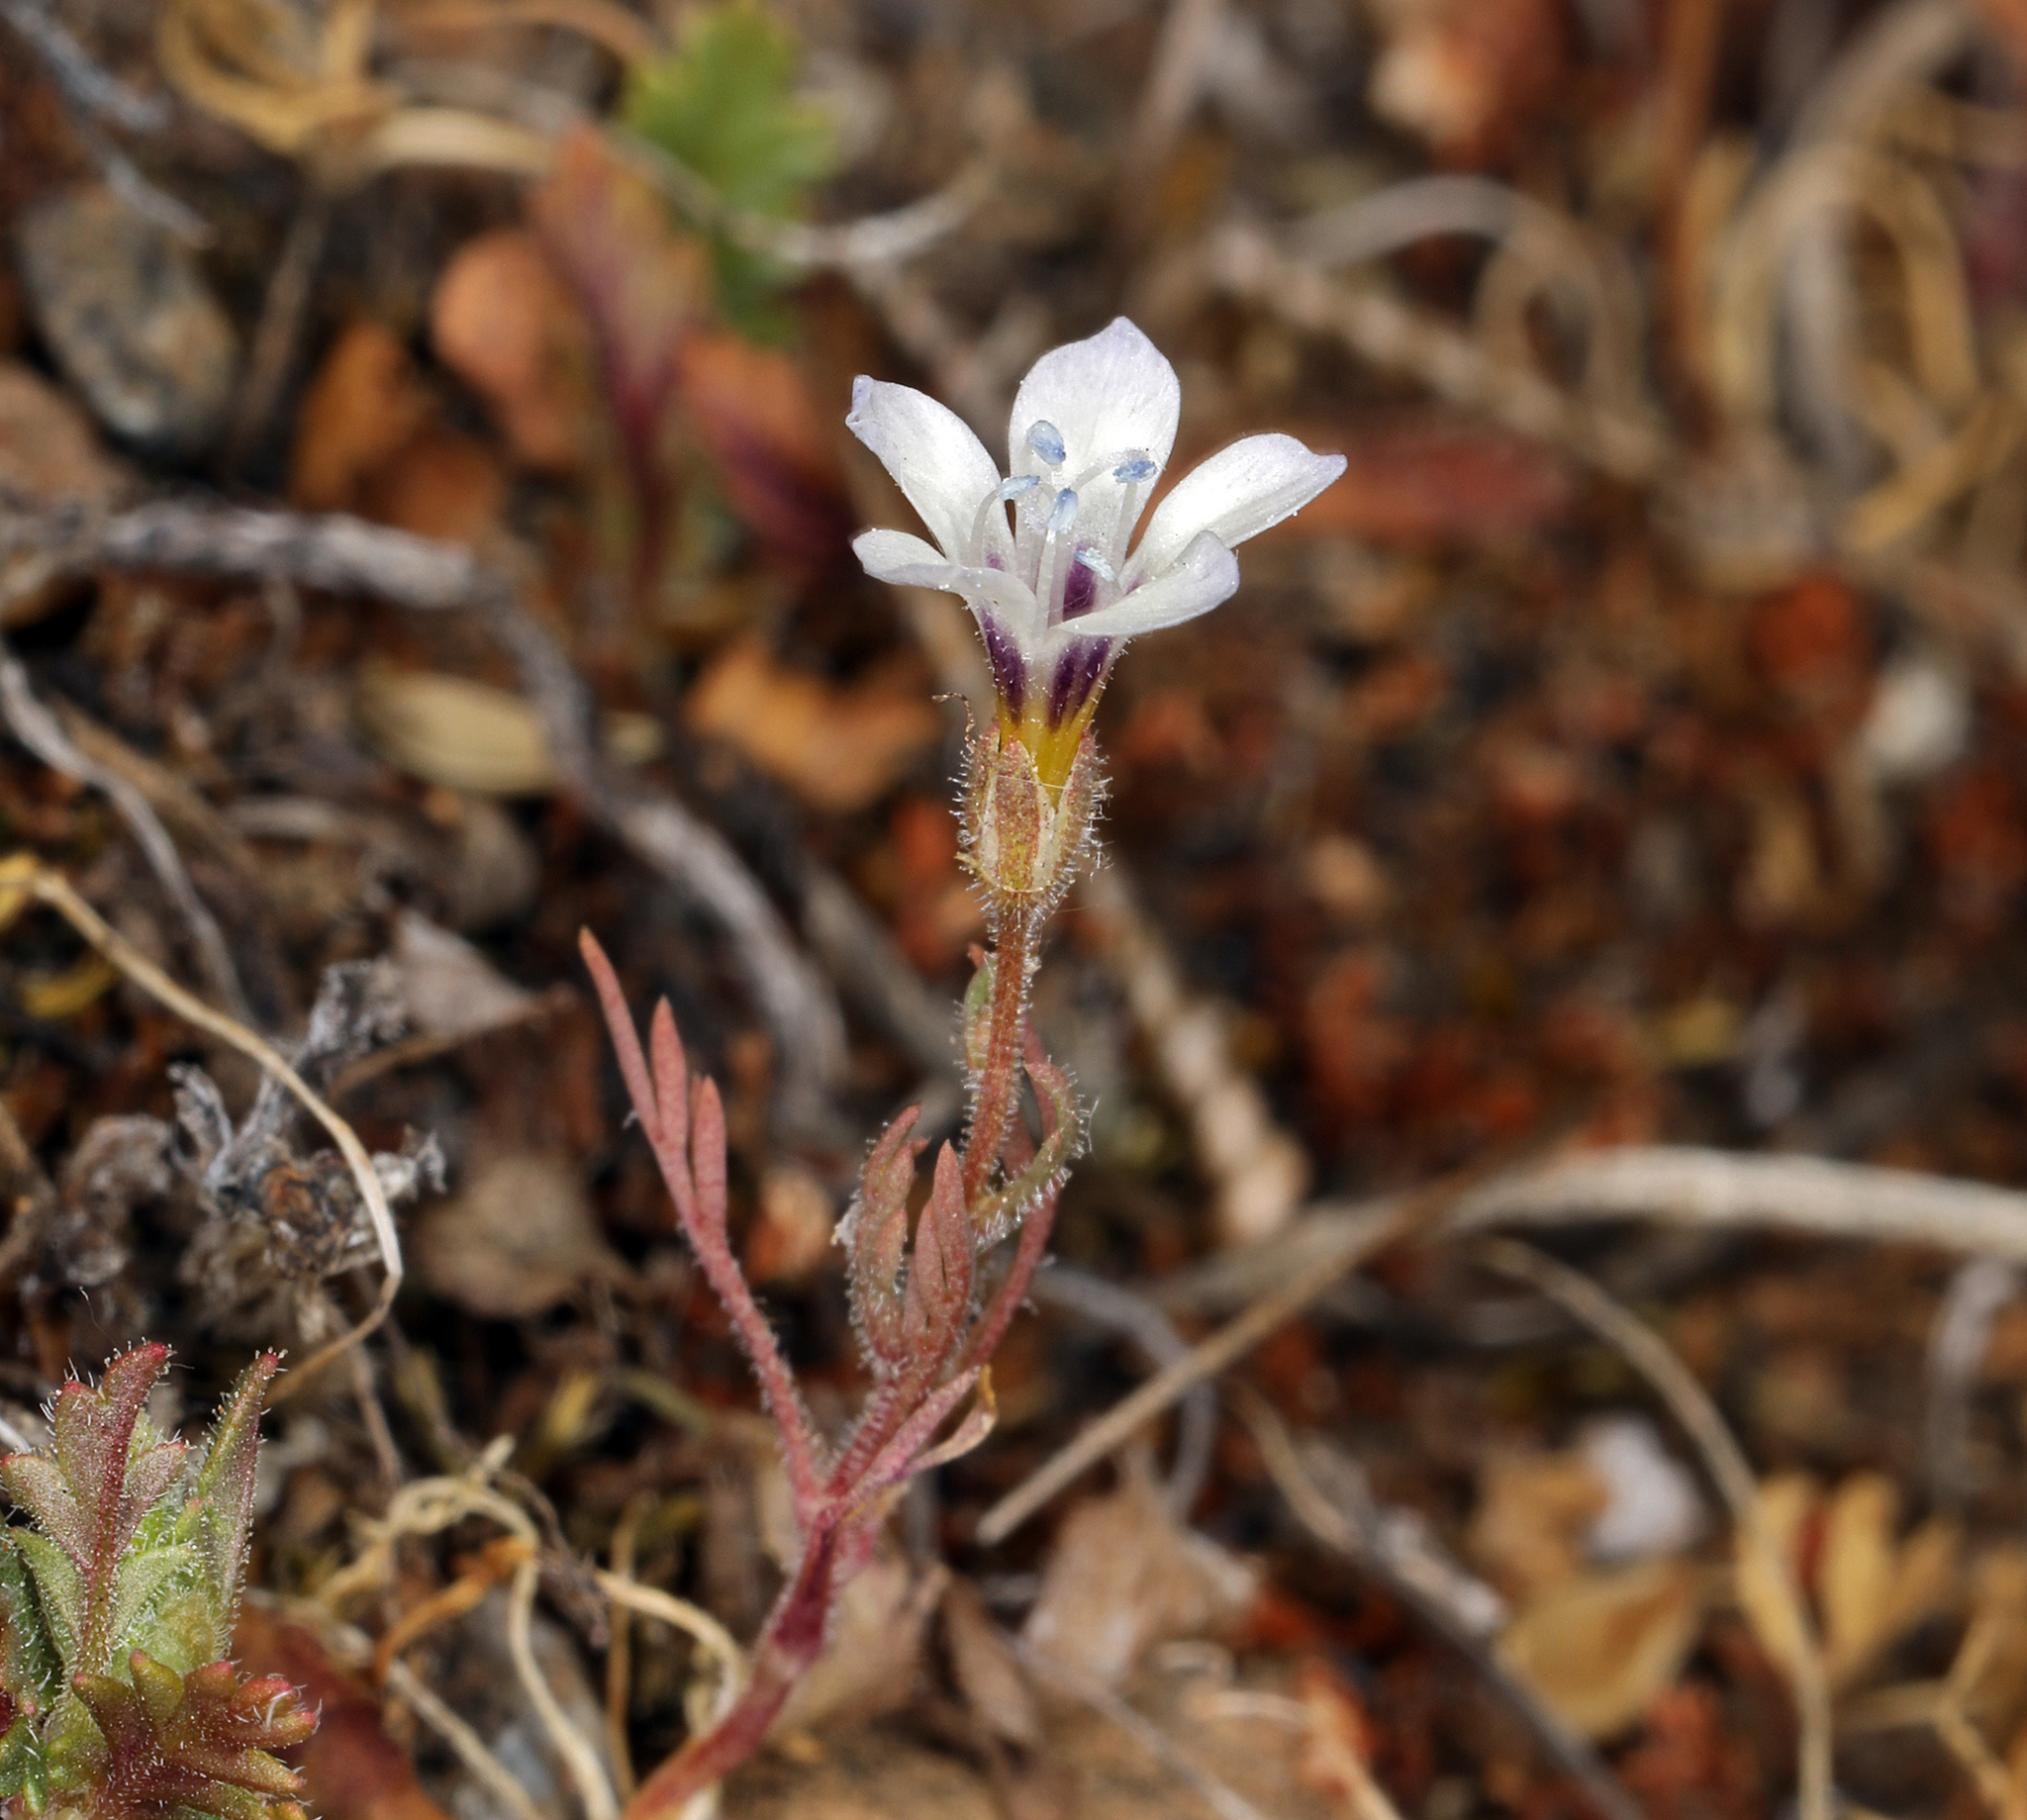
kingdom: Plantae
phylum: Tracheophyta
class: Magnoliopsida
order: Ericales
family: Polemoniaceae
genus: Gilia
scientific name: Gilia tricolor
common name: Bird's-eyes
